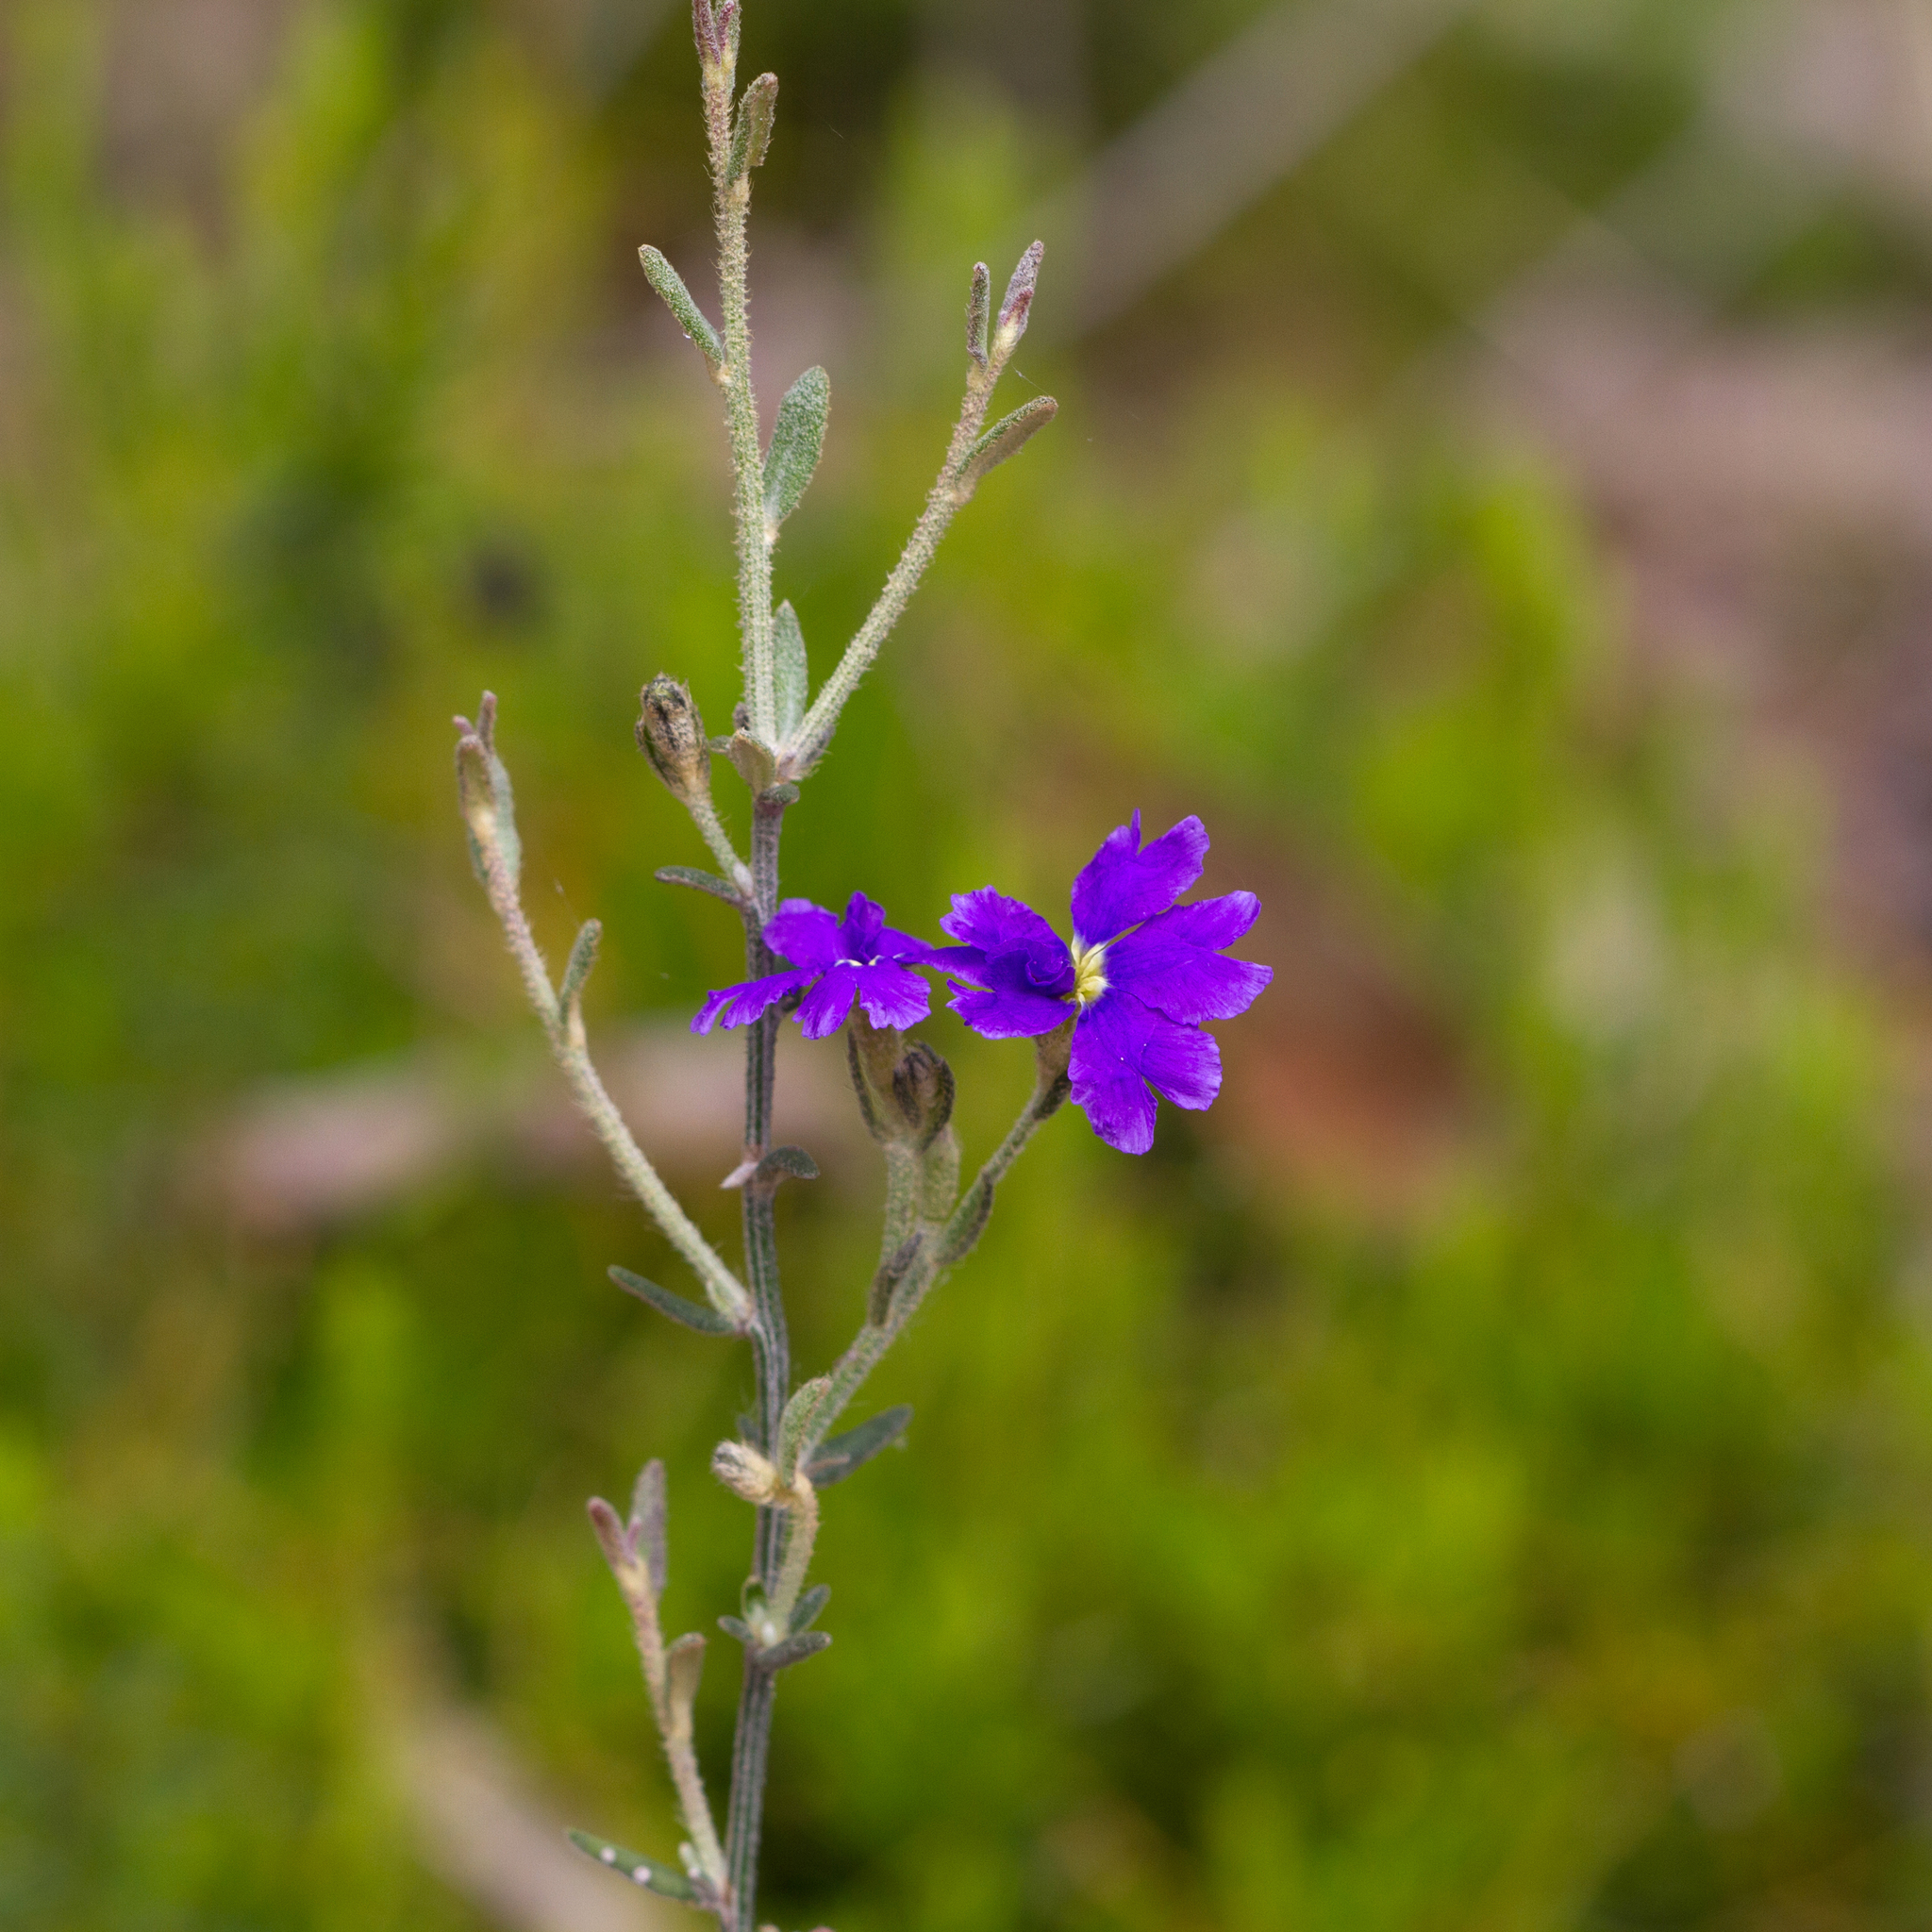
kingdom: Plantae
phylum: Tracheophyta
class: Magnoliopsida
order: Asterales
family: Goodeniaceae
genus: Dampiera
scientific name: Dampiera dysantha
